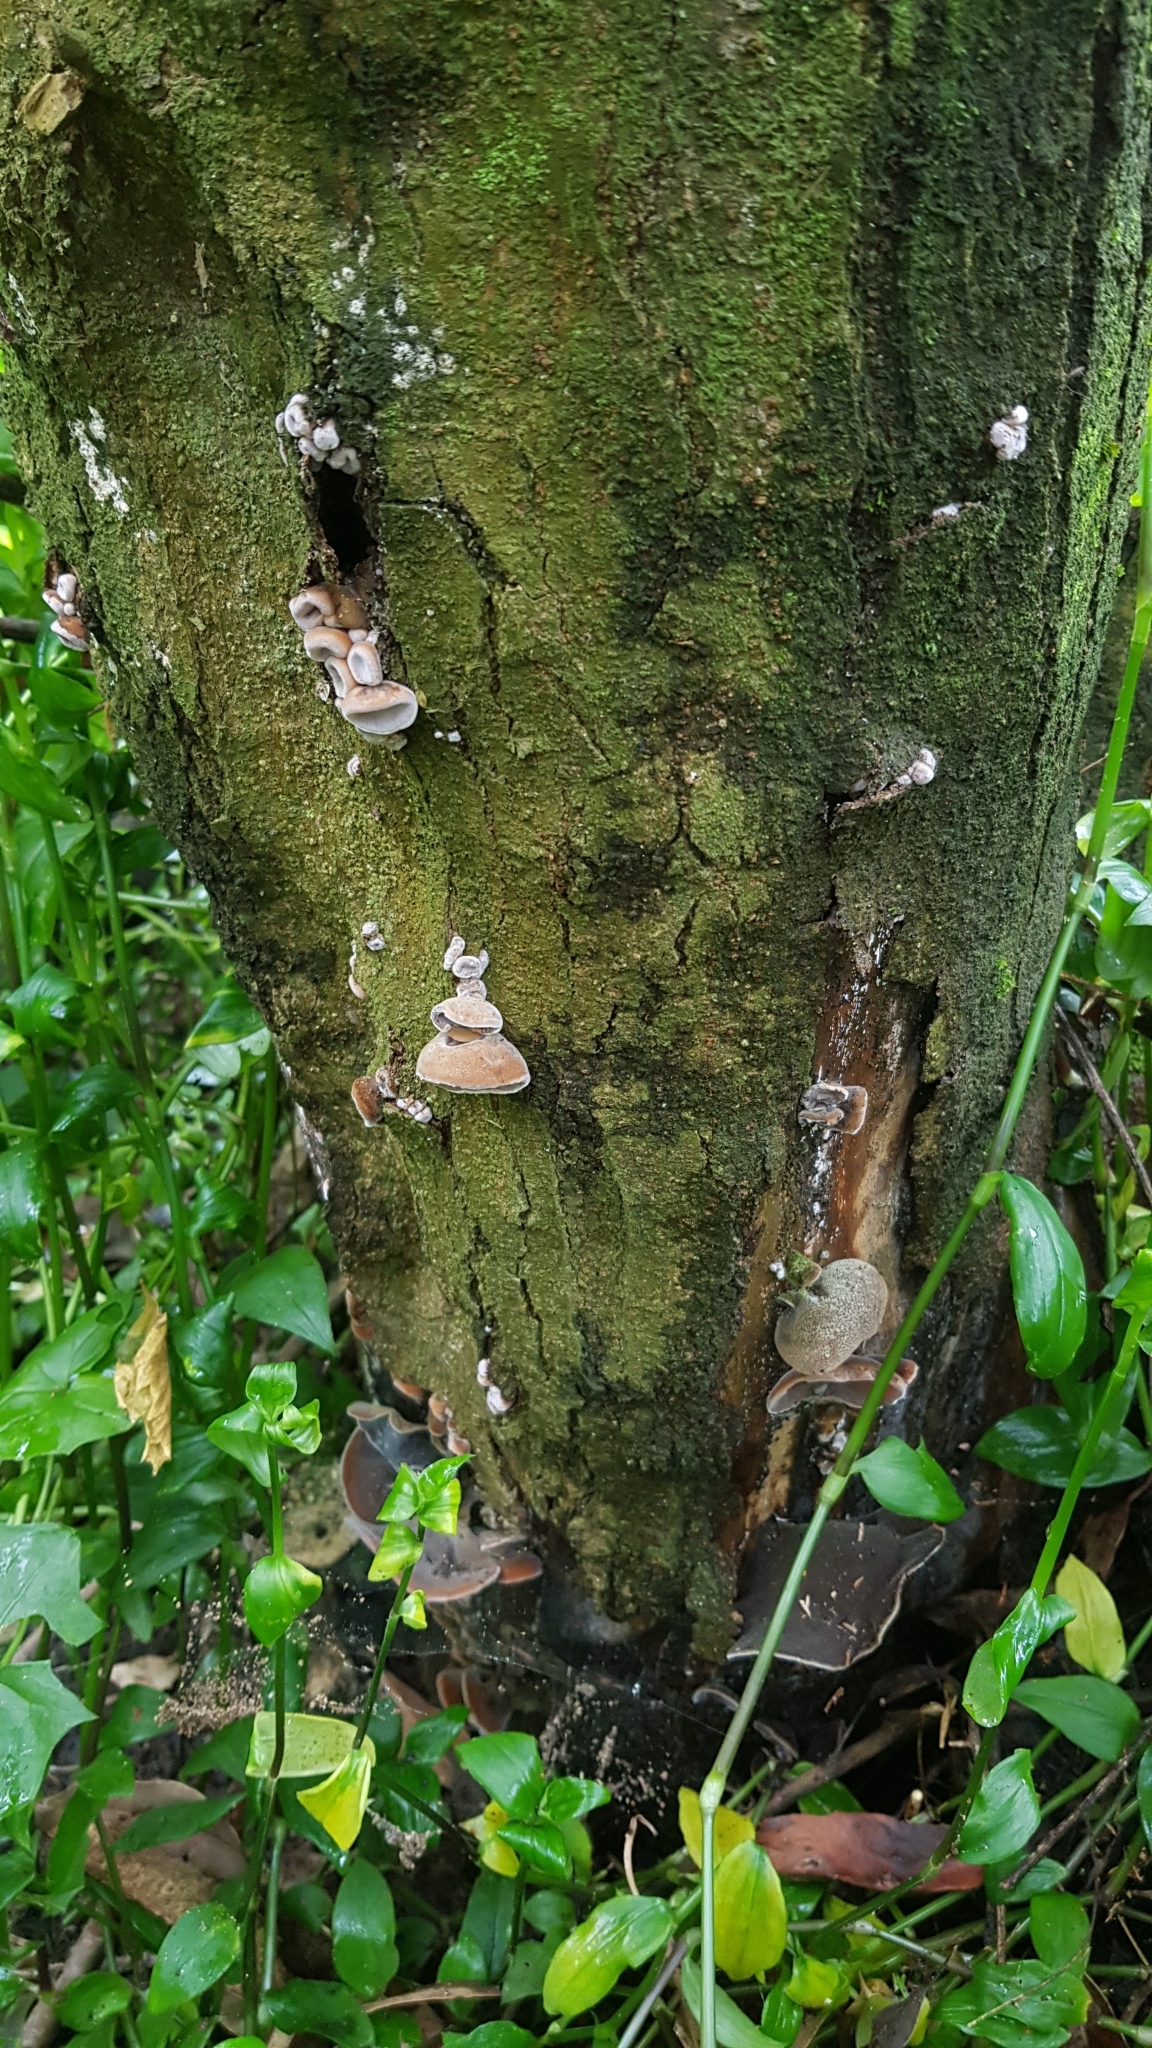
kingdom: Fungi
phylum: Basidiomycota
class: Agaricomycetes
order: Auriculariales
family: Auriculariaceae
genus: Auricularia
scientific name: Auricularia cornea
